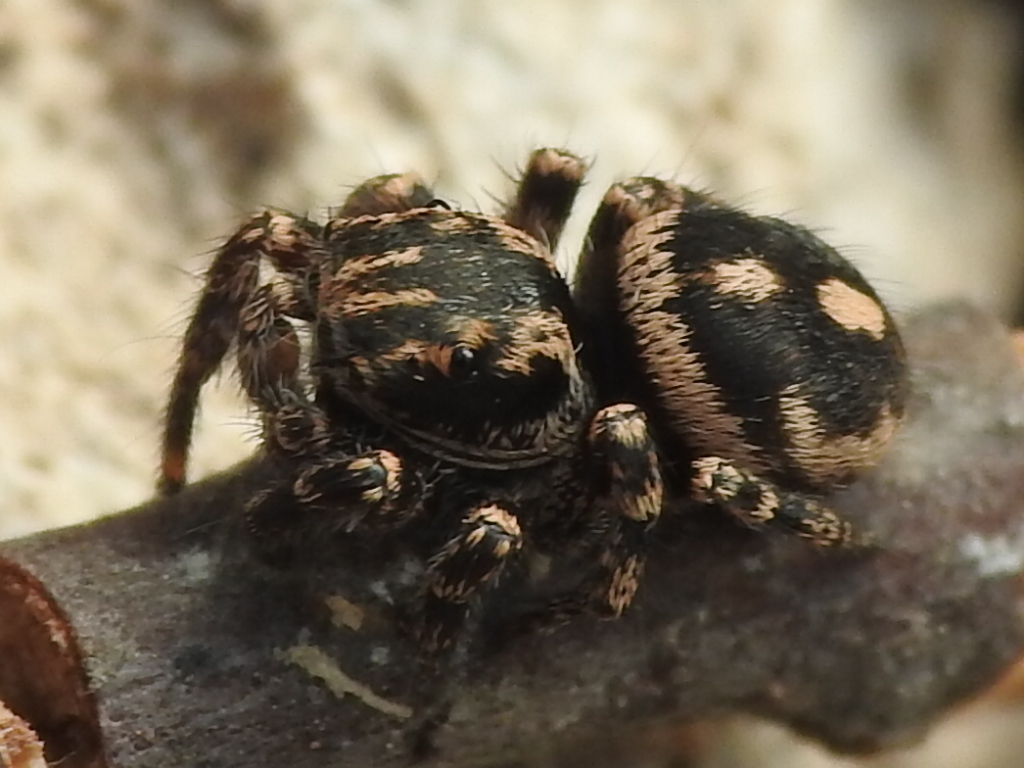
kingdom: Animalia
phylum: Arthropoda
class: Arachnida
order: Araneae
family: Salticidae
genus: Habronattus
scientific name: Habronattus fallax
